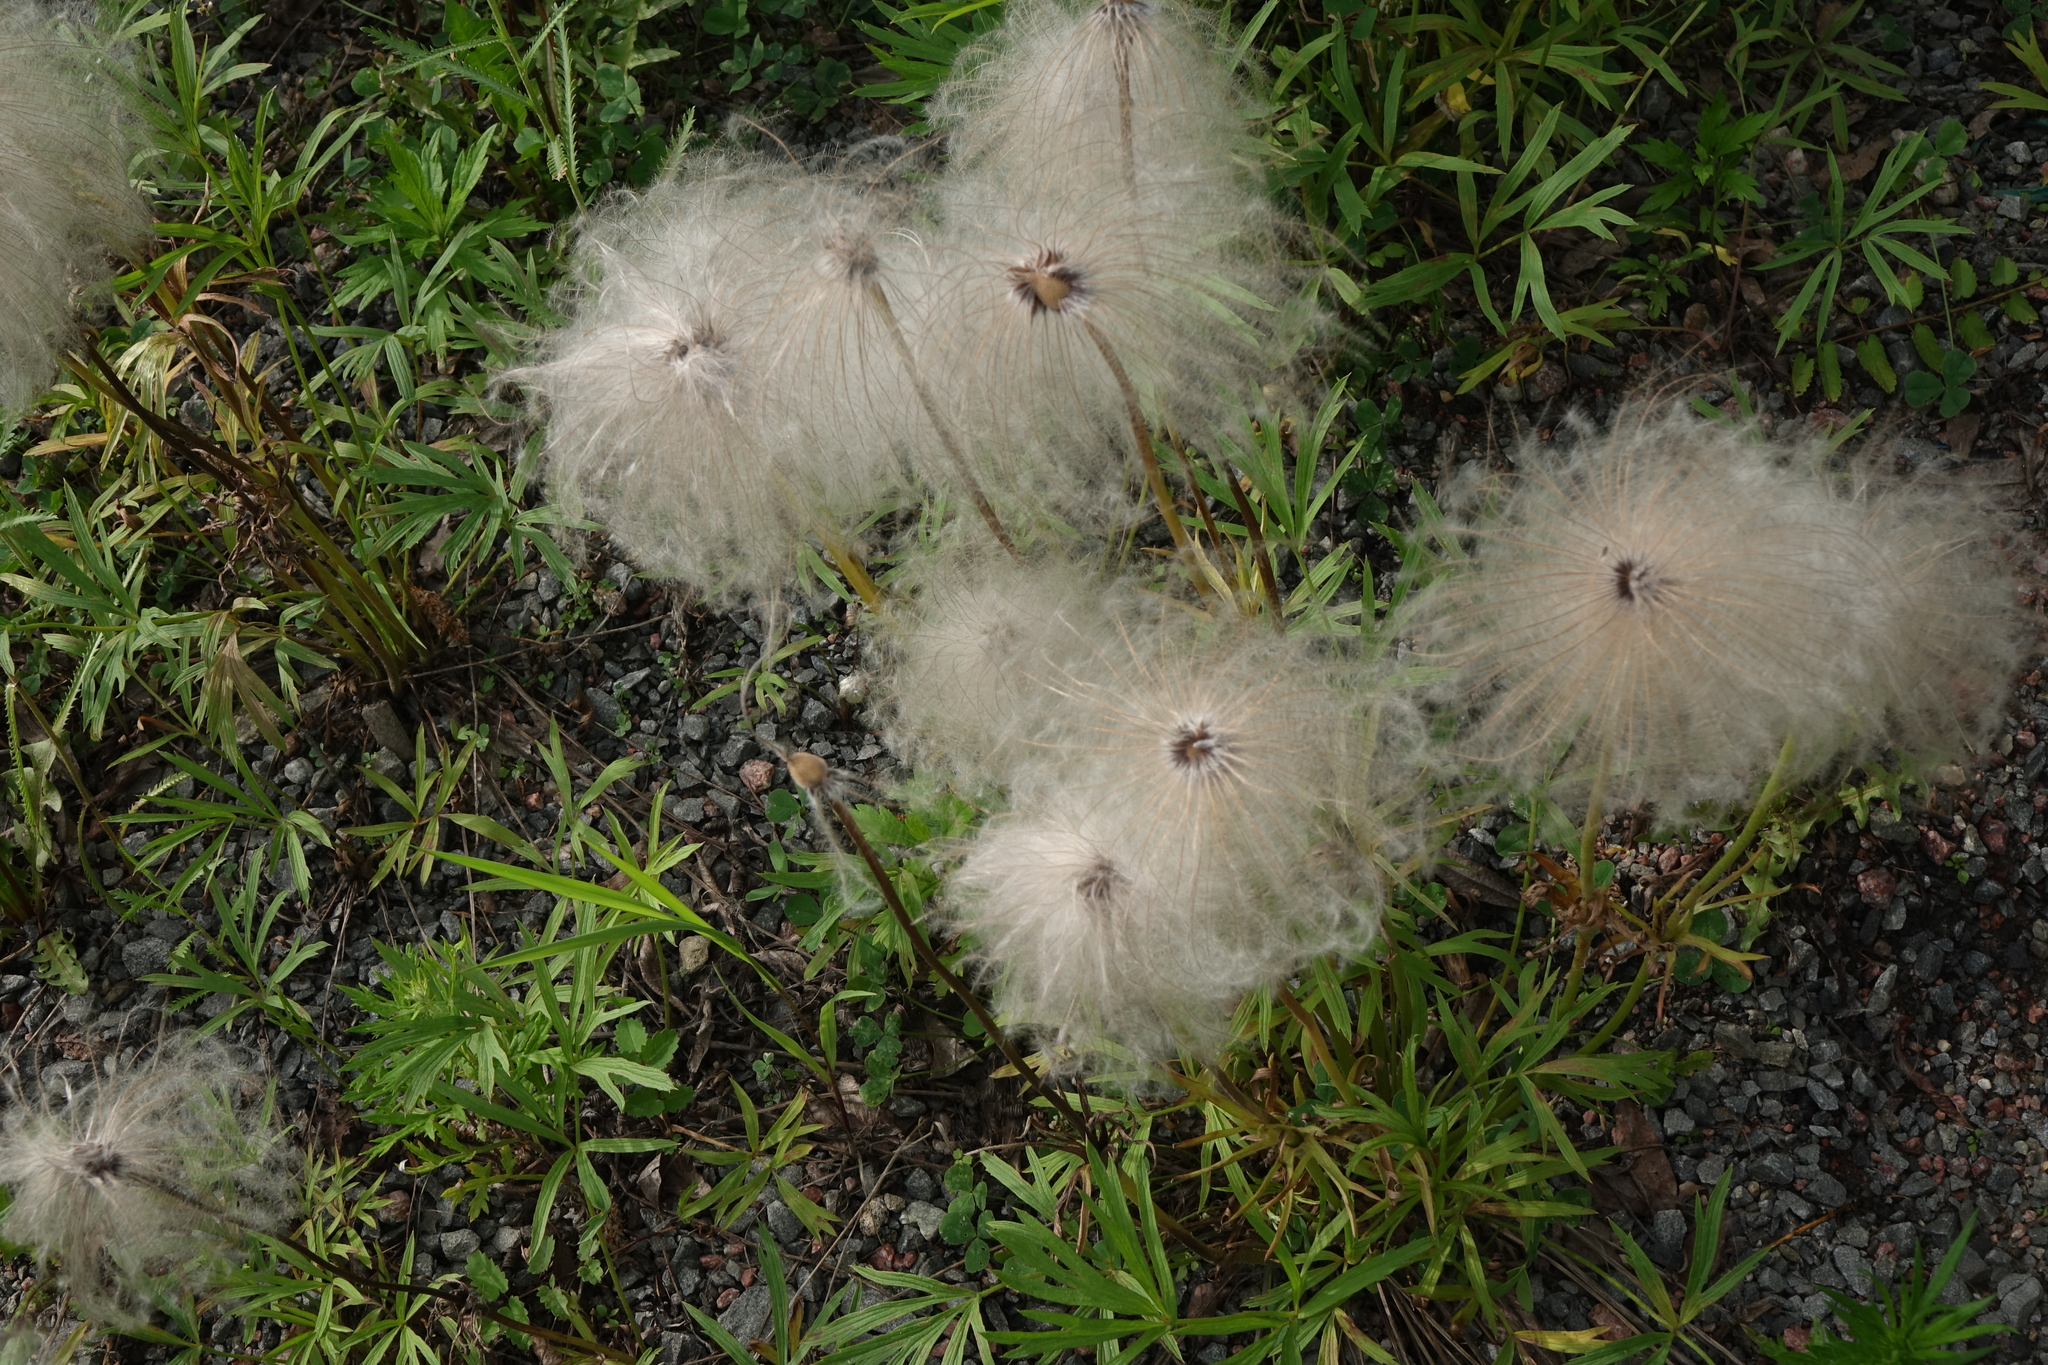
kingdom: Plantae
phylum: Tracheophyta
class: Magnoliopsida
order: Ranunculales
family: Ranunculaceae
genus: Pulsatilla
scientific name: Pulsatilla dahurica
